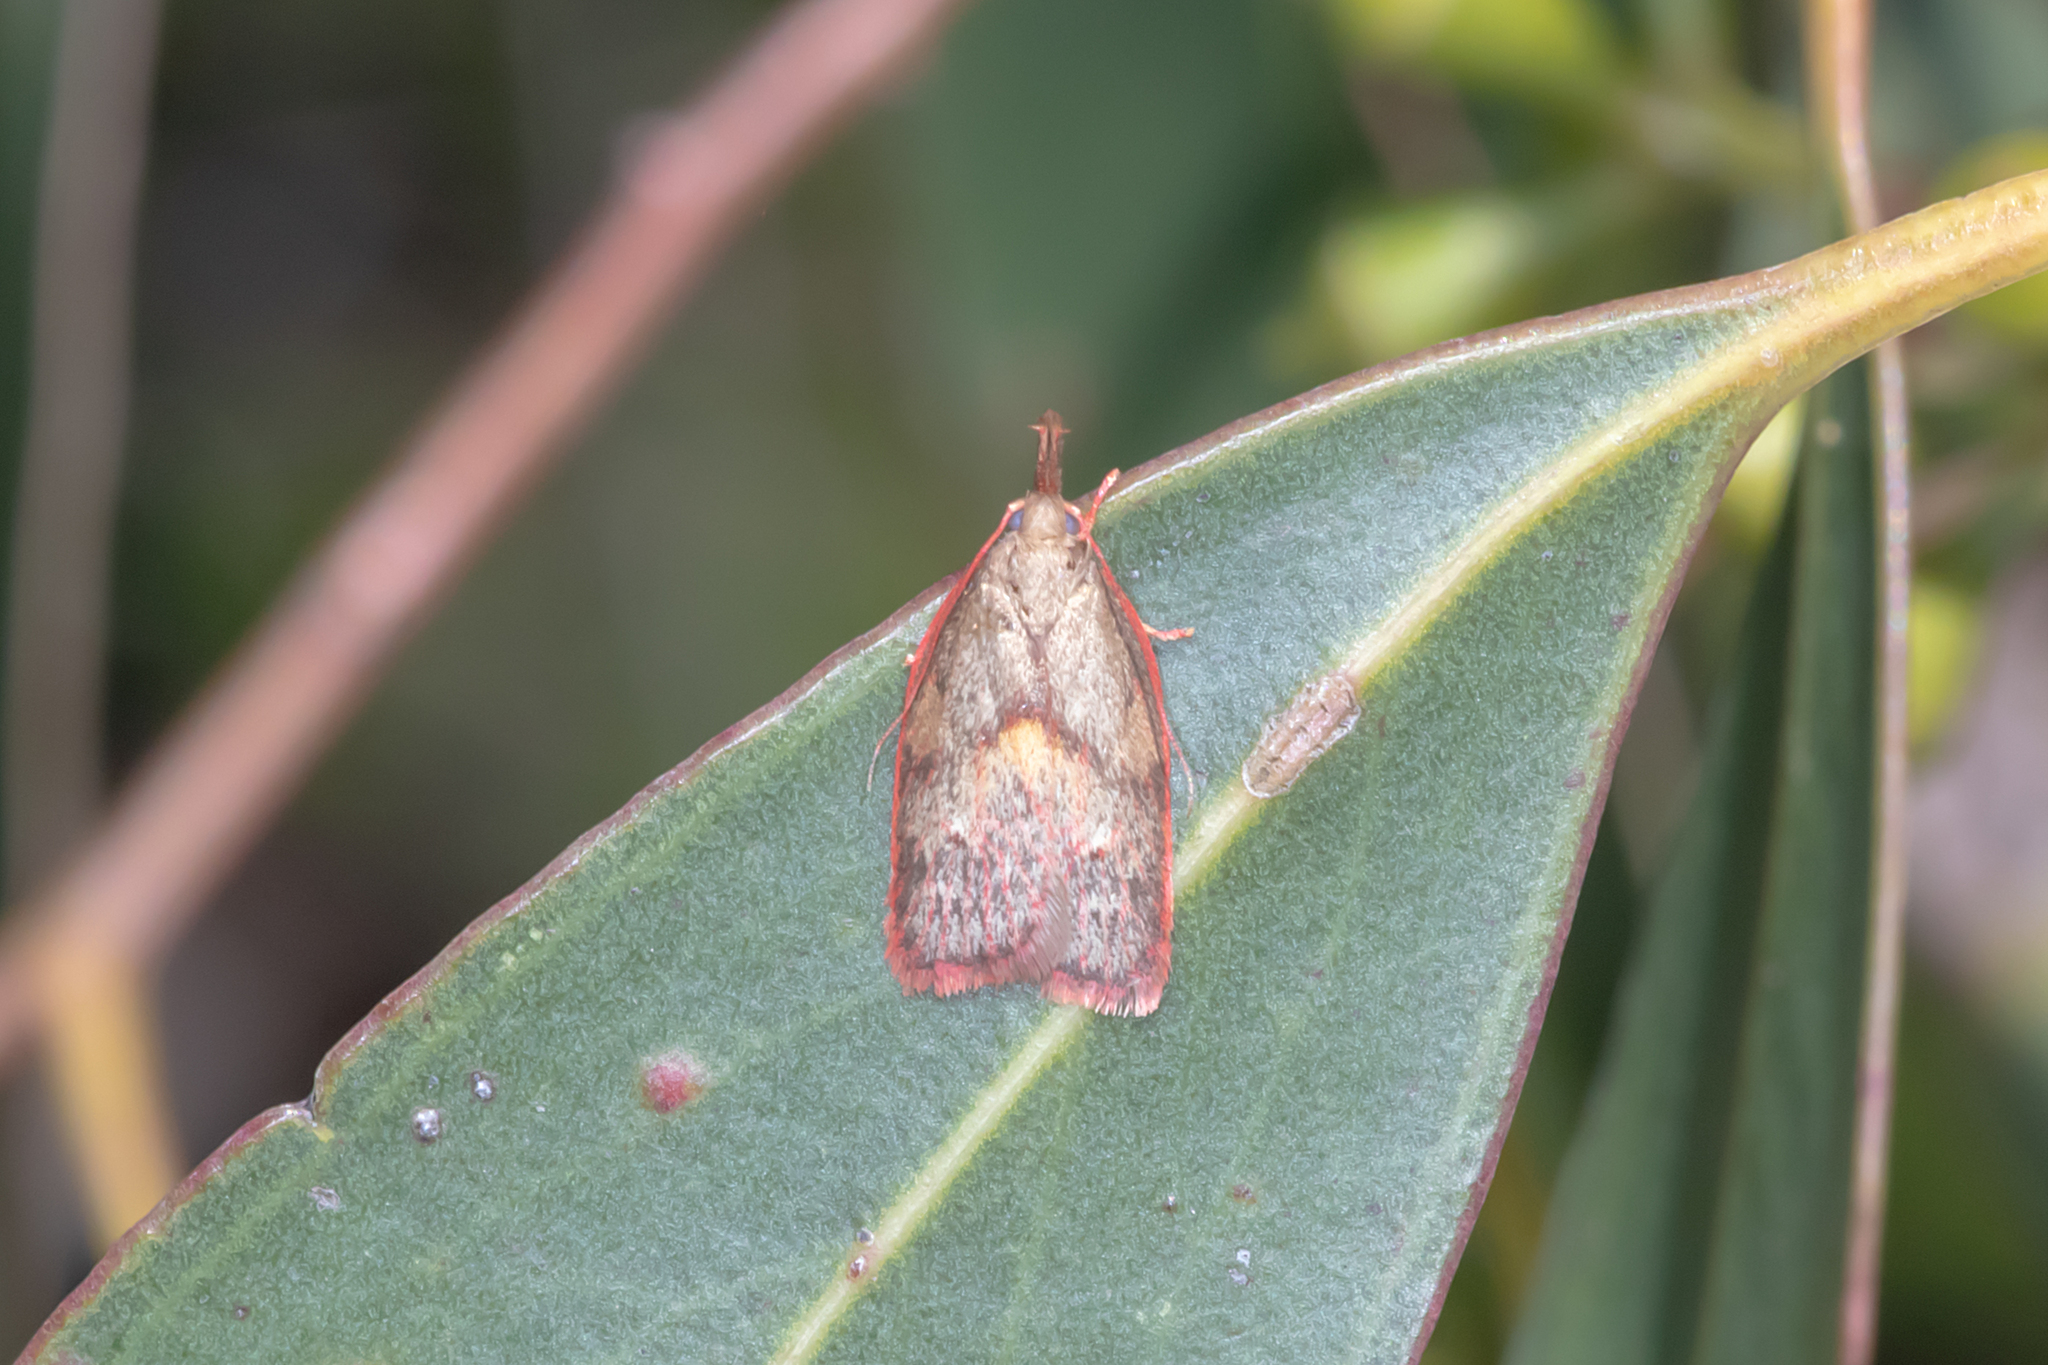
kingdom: Animalia
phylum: Arthropoda
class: Insecta
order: Lepidoptera
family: Depressariidae
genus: Enchocrates
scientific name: Enchocrates glaucopis
